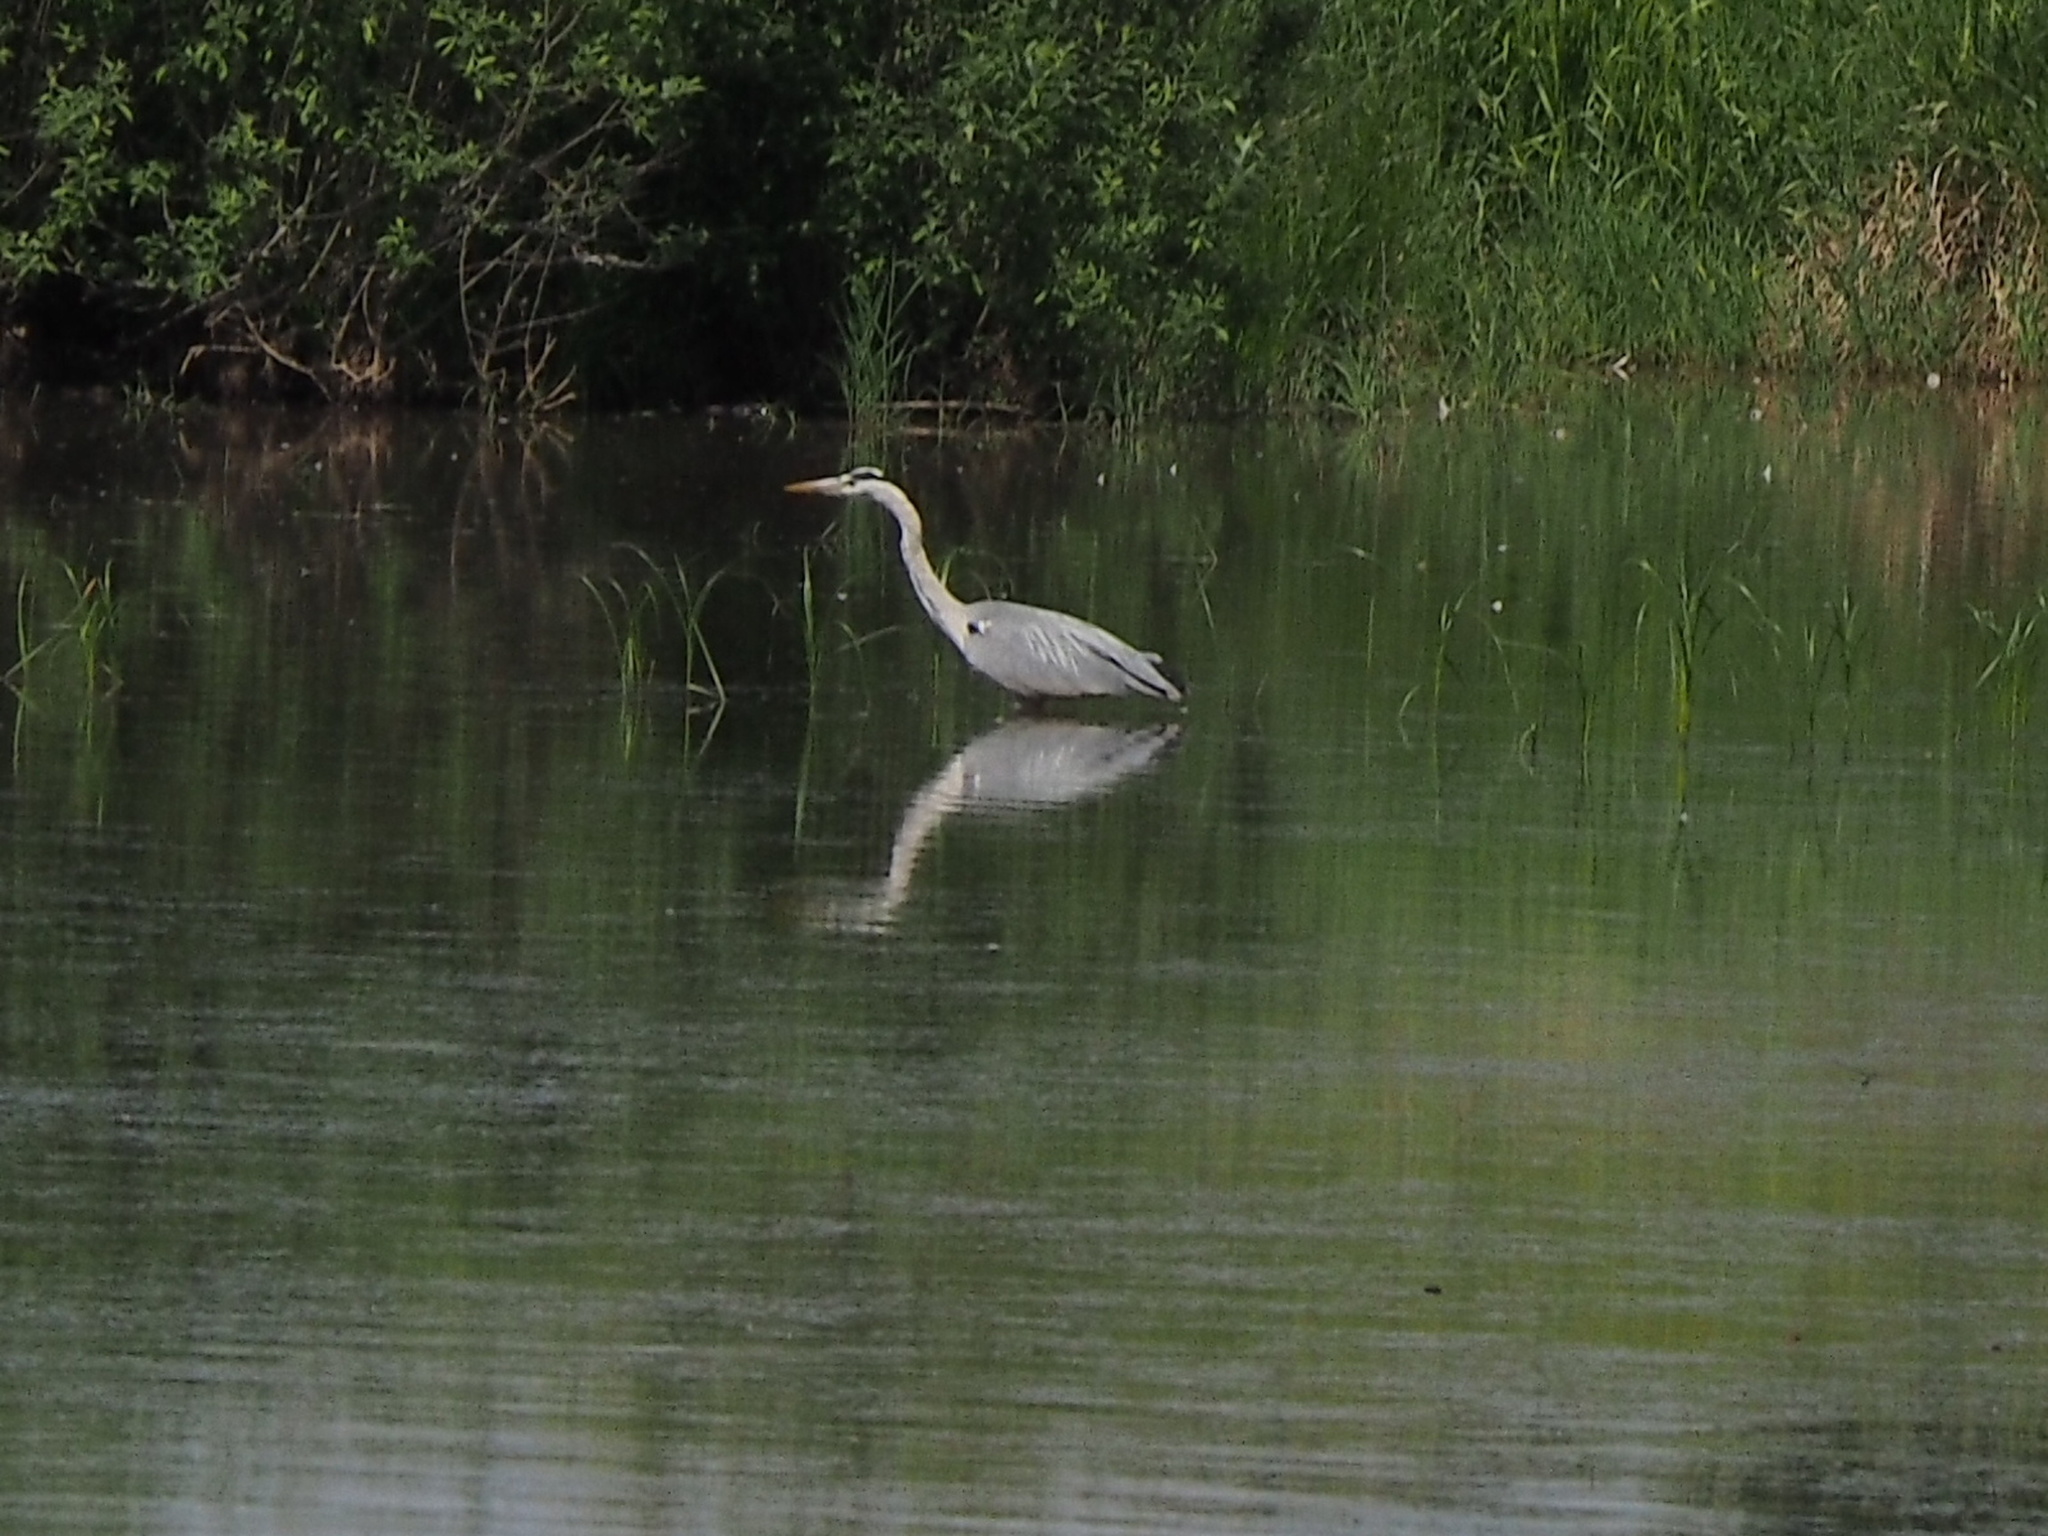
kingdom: Animalia
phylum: Chordata
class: Aves
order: Pelecaniformes
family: Ardeidae
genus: Ardea
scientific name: Ardea cinerea
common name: Grey heron
